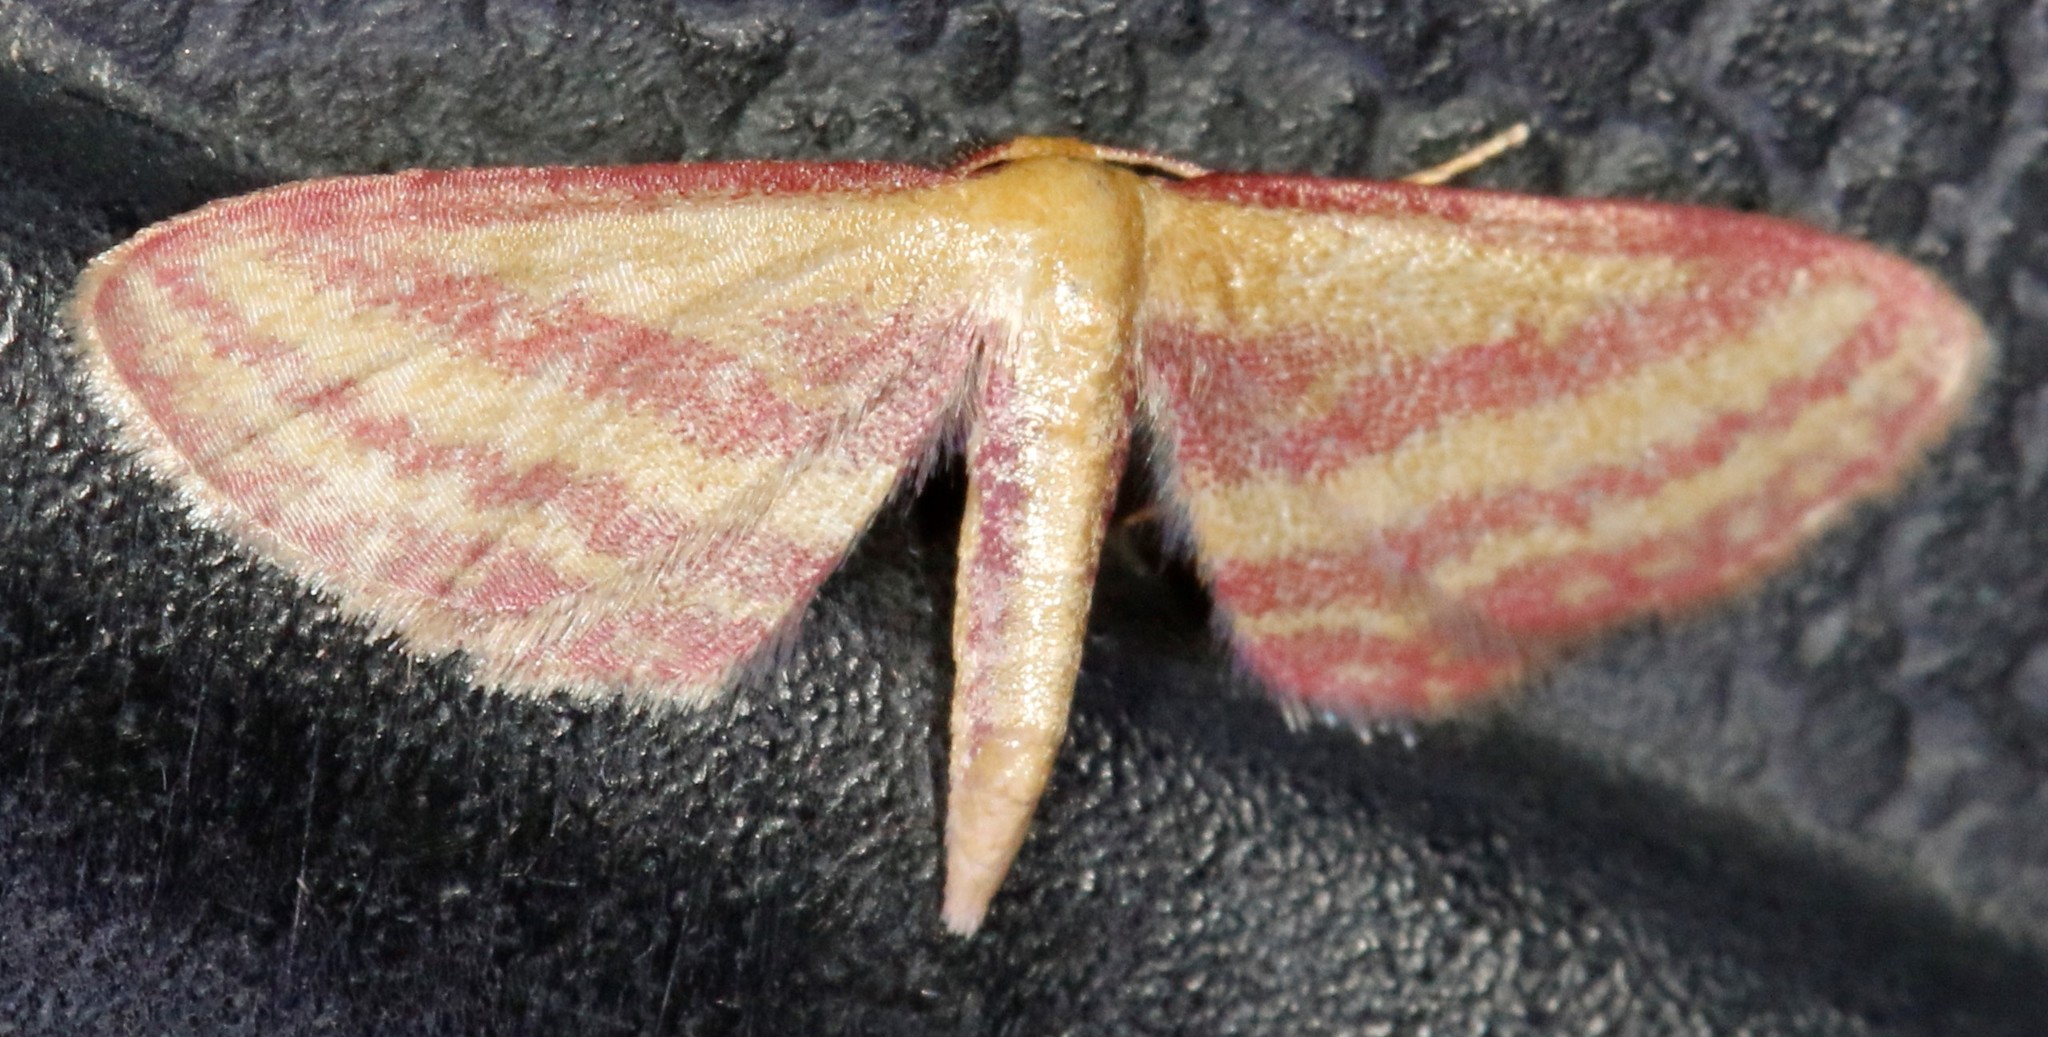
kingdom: Animalia
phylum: Arthropoda
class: Insecta
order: Lepidoptera
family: Geometridae
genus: Leptostales
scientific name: Leptostales laevitaria
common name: Raspberry wave moth
